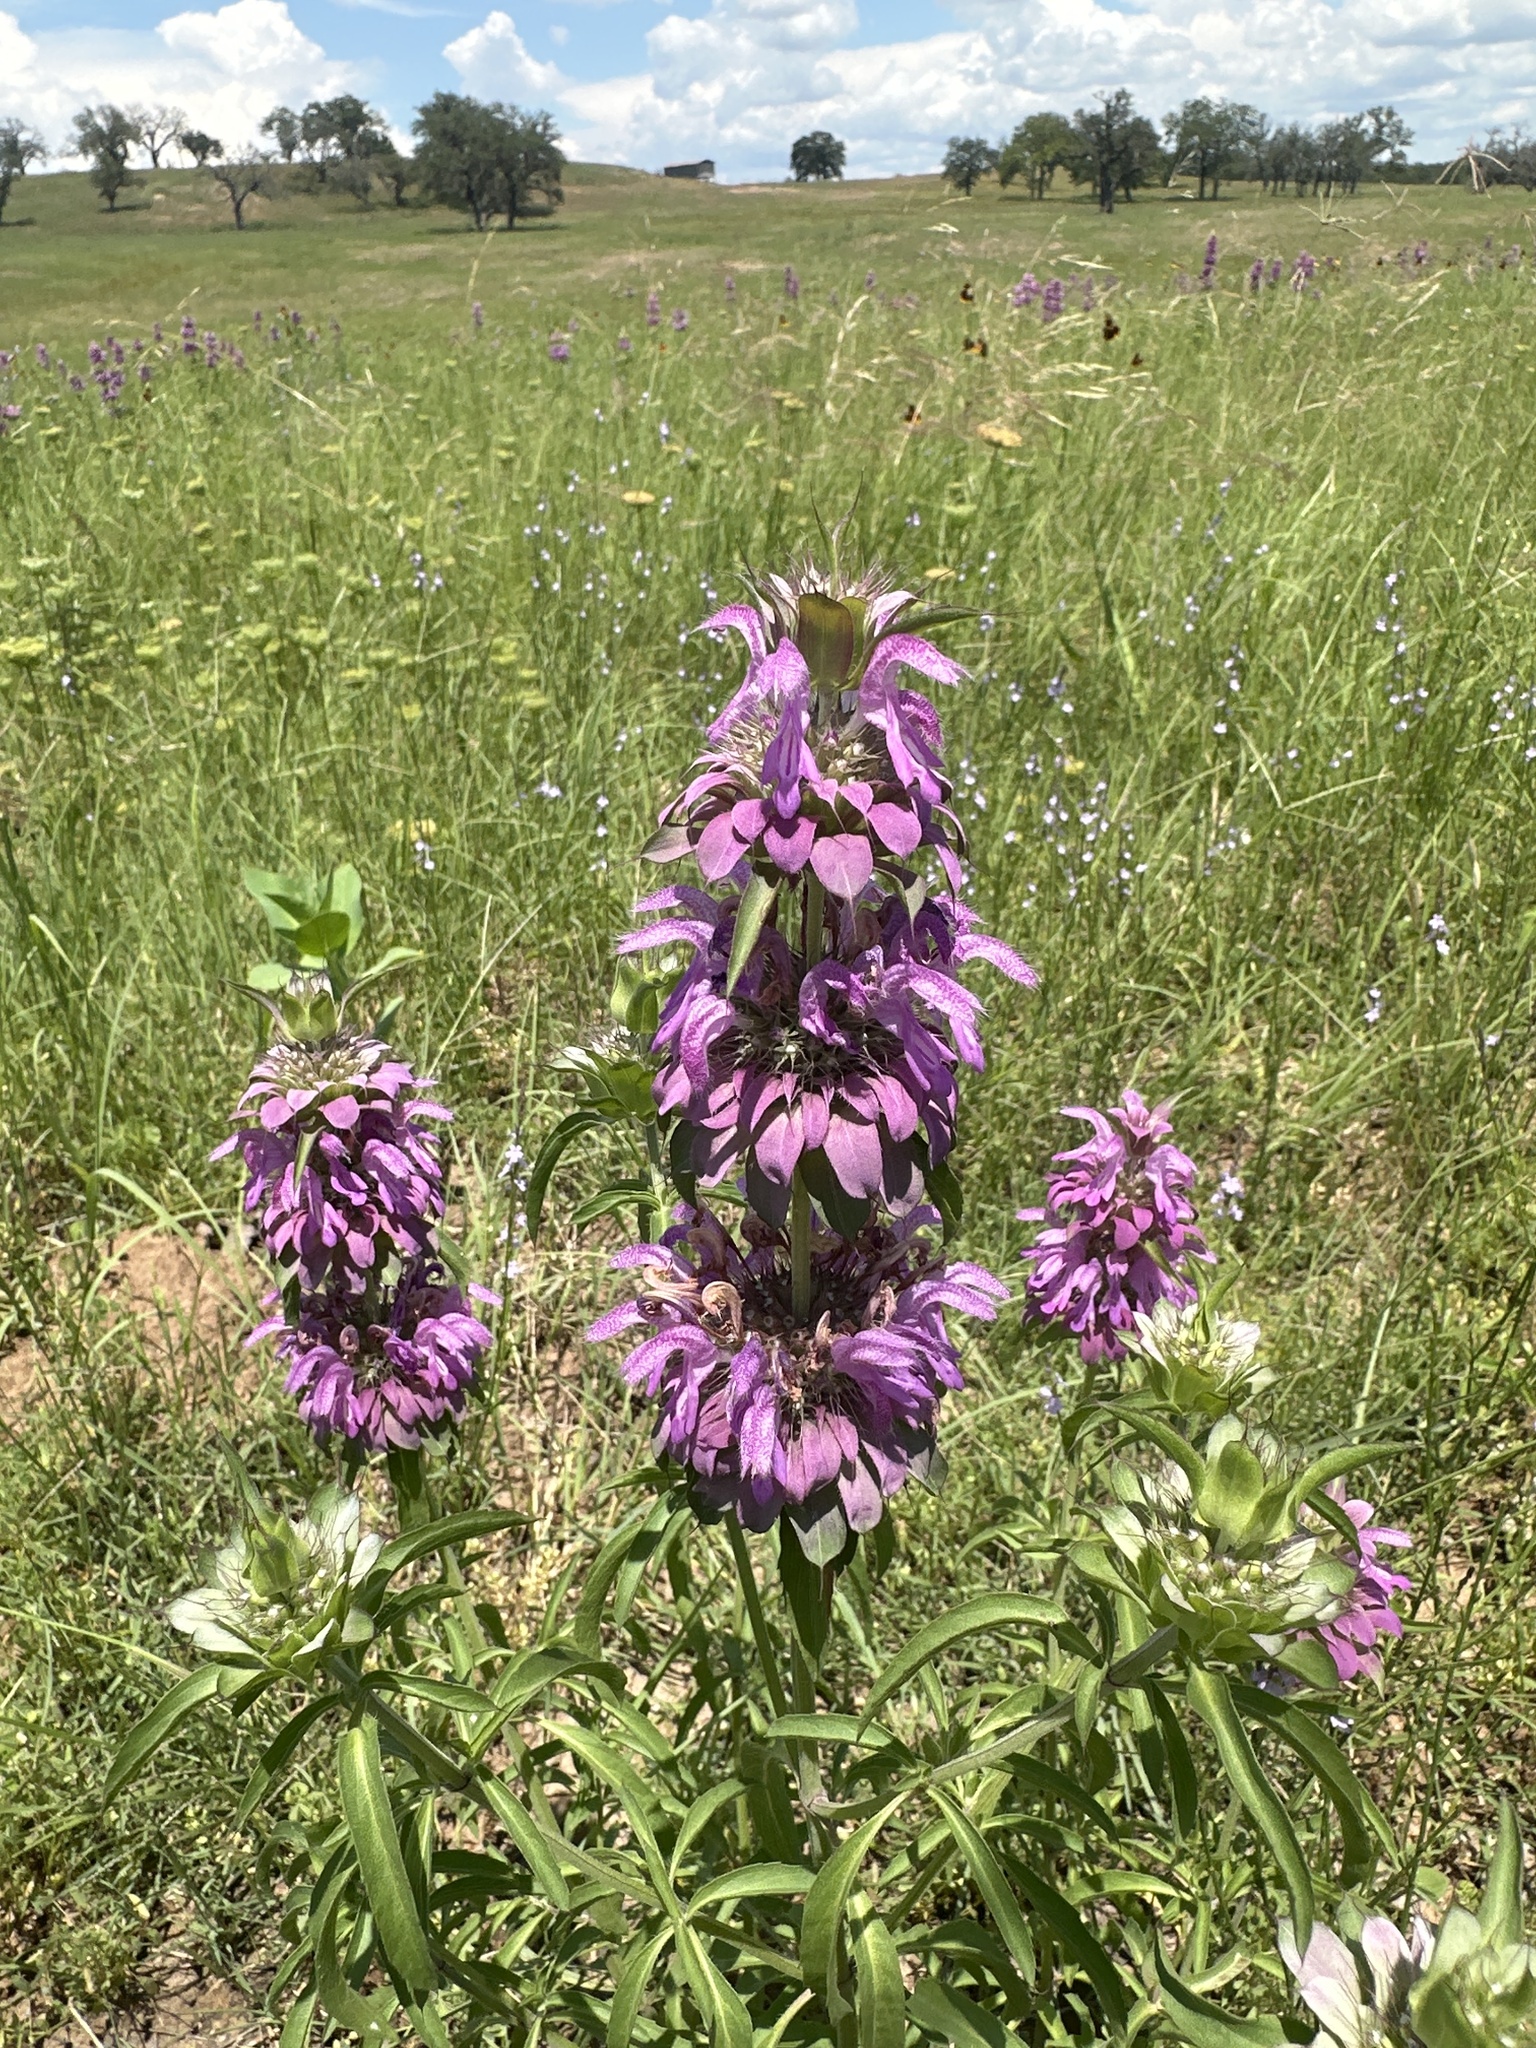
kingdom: Plantae
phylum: Tracheophyta
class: Magnoliopsida
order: Lamiales
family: Lamiaceae
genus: Monarda
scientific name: Monarda citriodora
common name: Lemon beebalm
